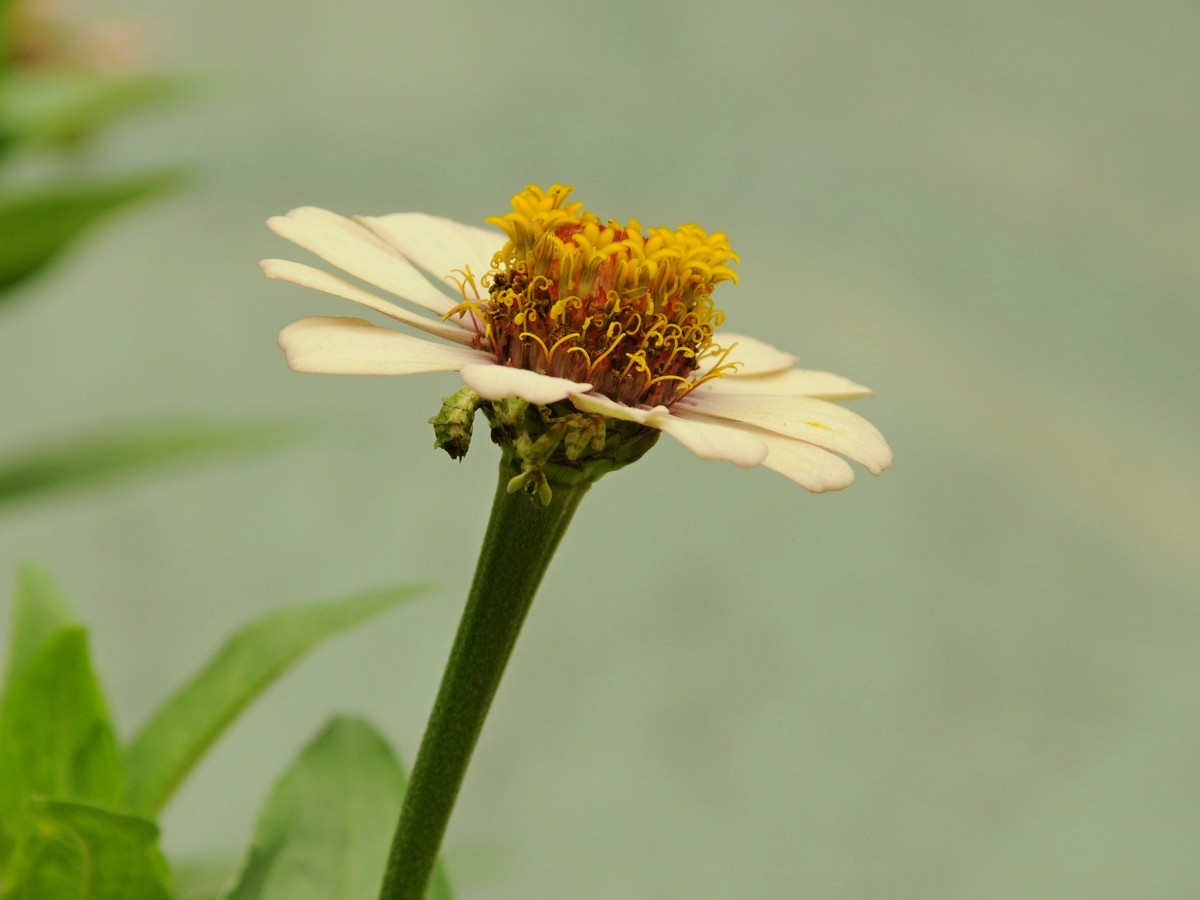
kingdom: Plantae
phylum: Tracheophyta
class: Magnoliopsida
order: Asterales
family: Asteraceae
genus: Zinnia
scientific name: Zinnia elegans
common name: Youth-and-age
